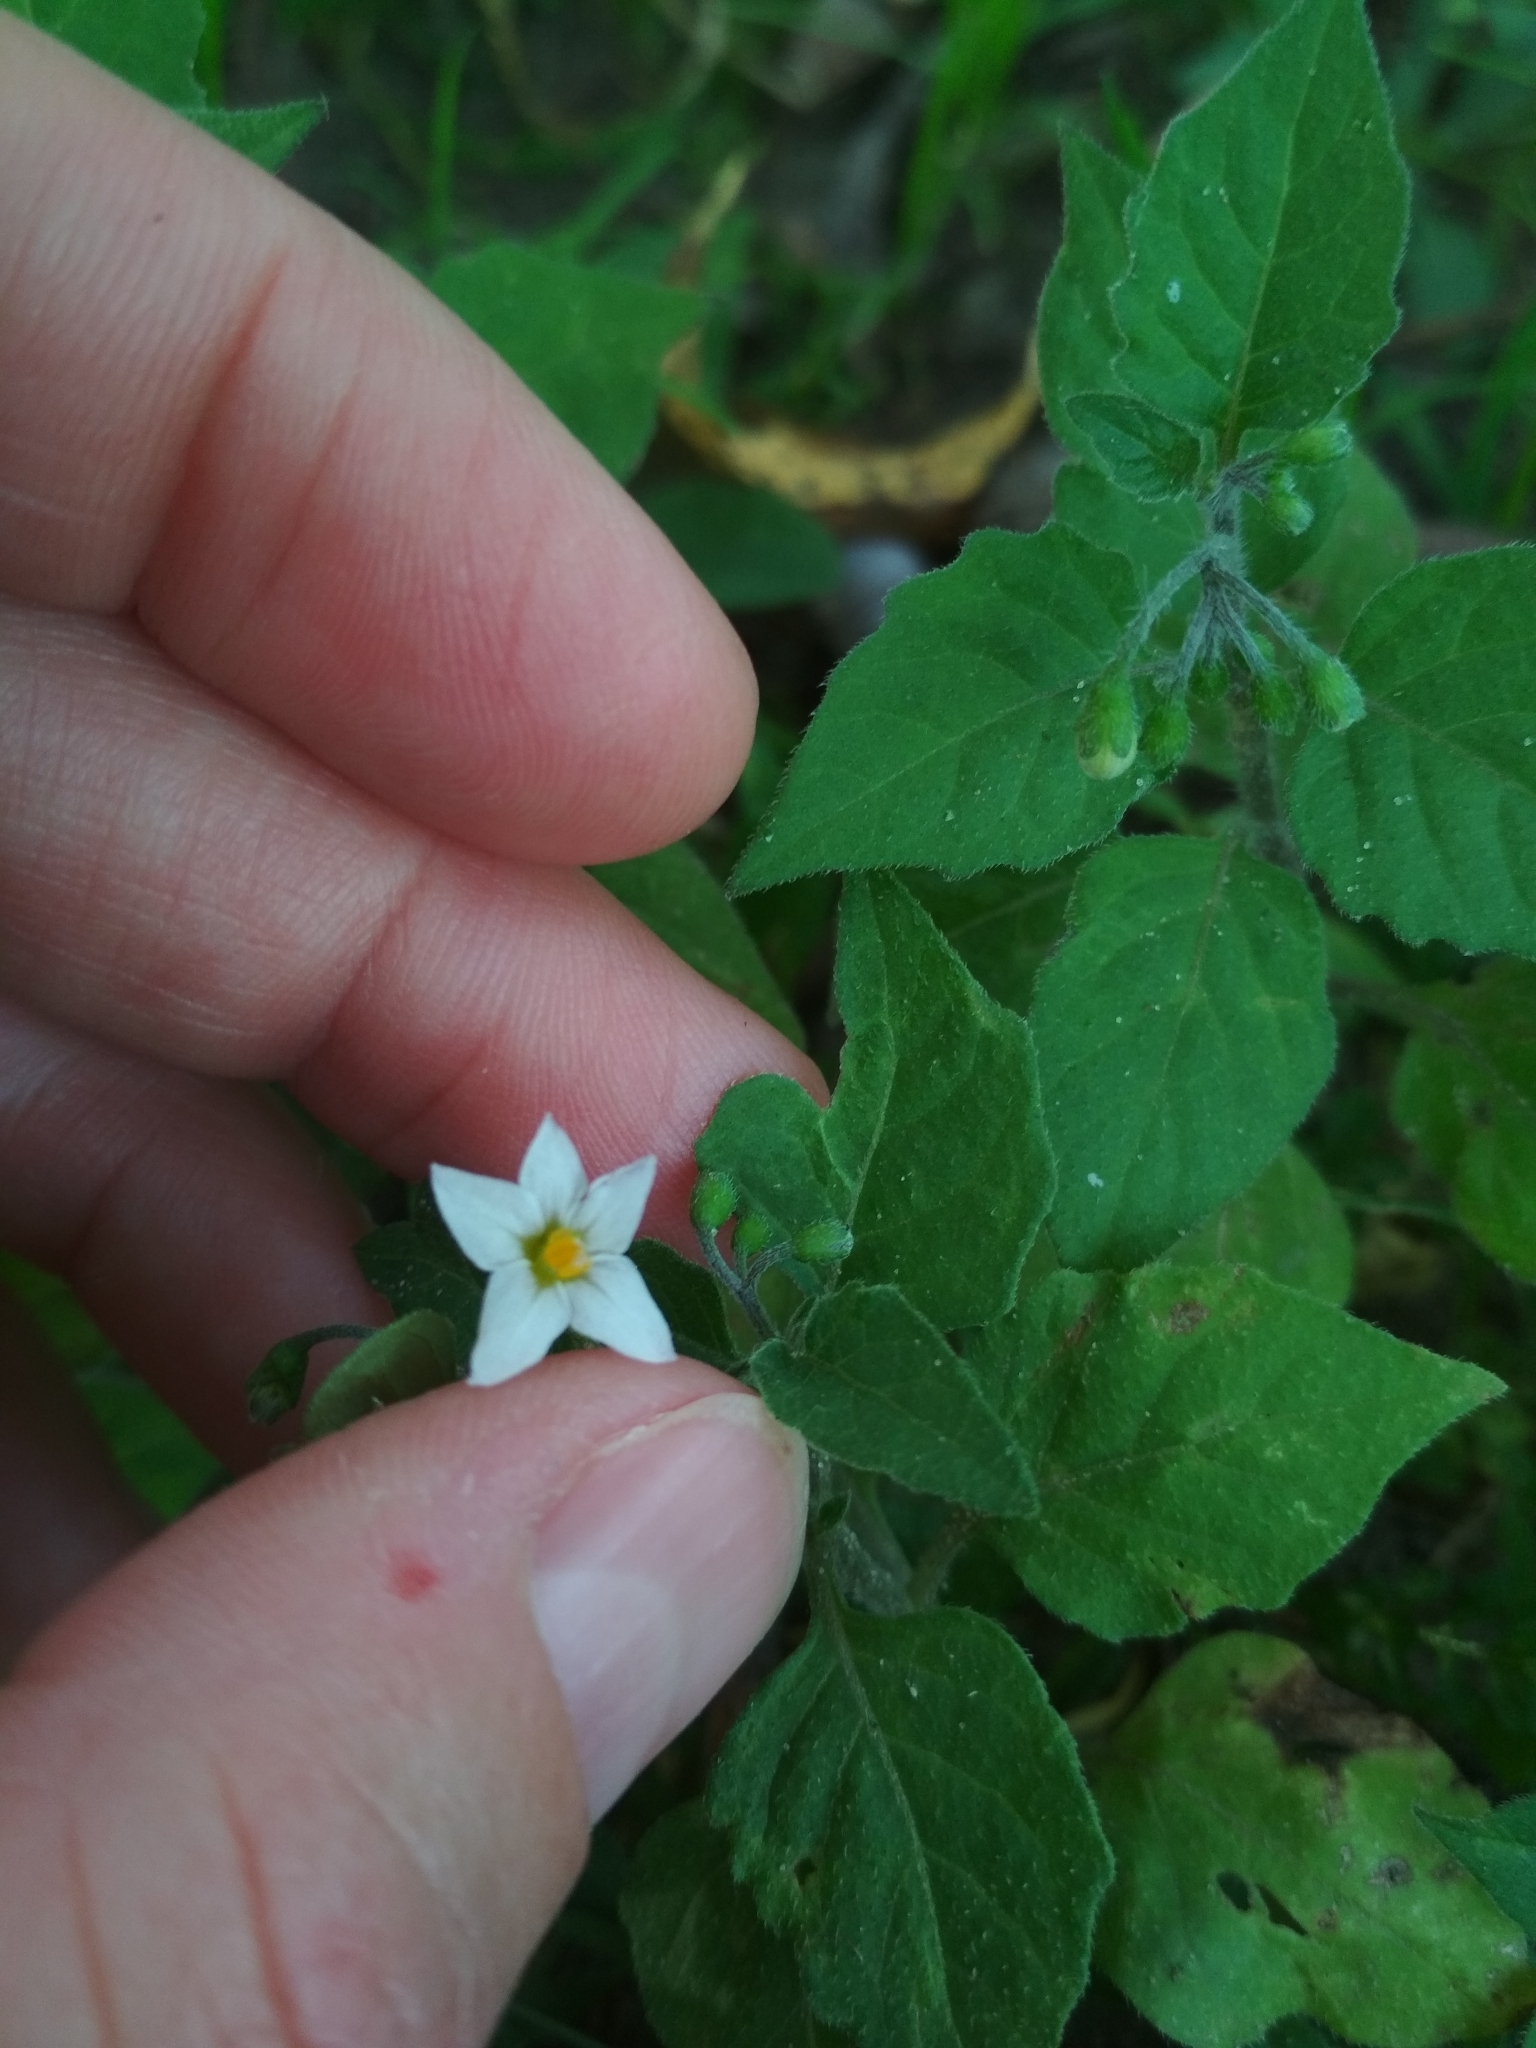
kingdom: Plantae
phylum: Tracheophyta
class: Magnoliopsida
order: Solanales
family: Solanaceae
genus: Solanum
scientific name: Solanum nigrum
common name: Black nightshade
